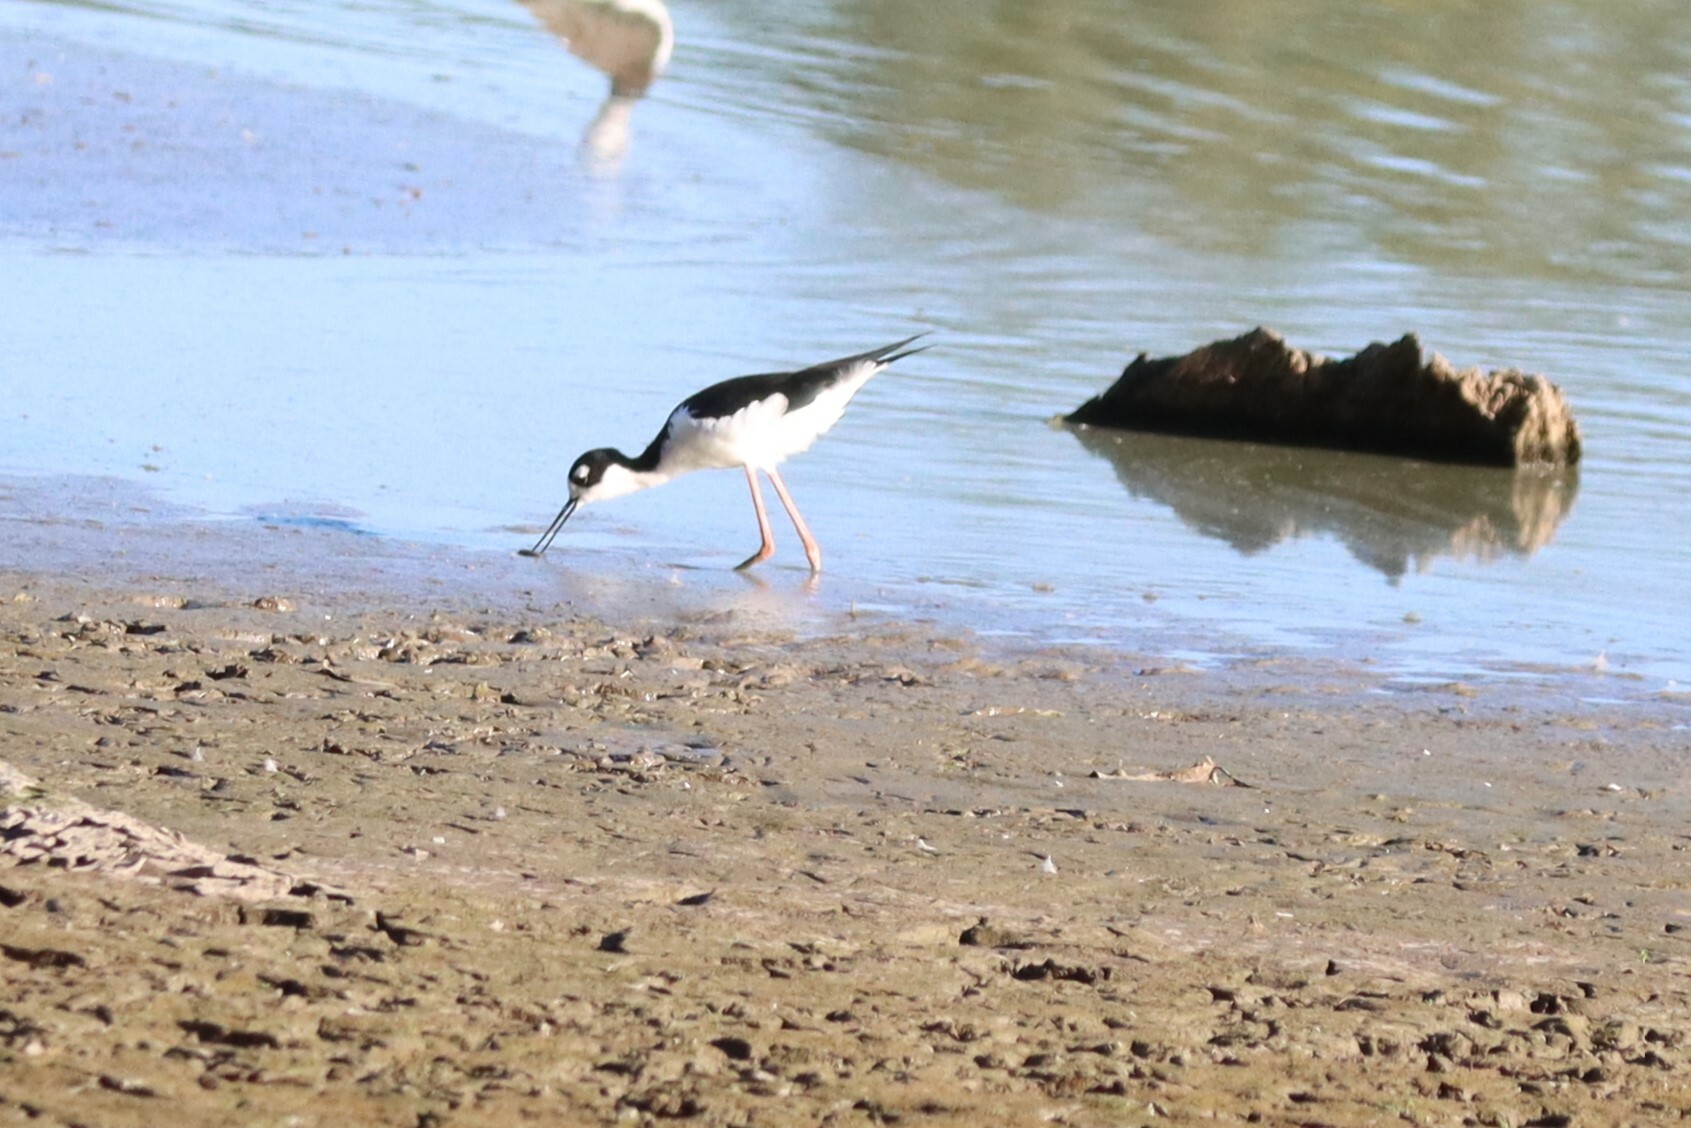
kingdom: Animalia
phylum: Chordata
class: Aves
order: Charadriiformes
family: Recurvirostridae
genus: Himantopus
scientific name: Himantopus mexicanus
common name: Black-necked stilt
